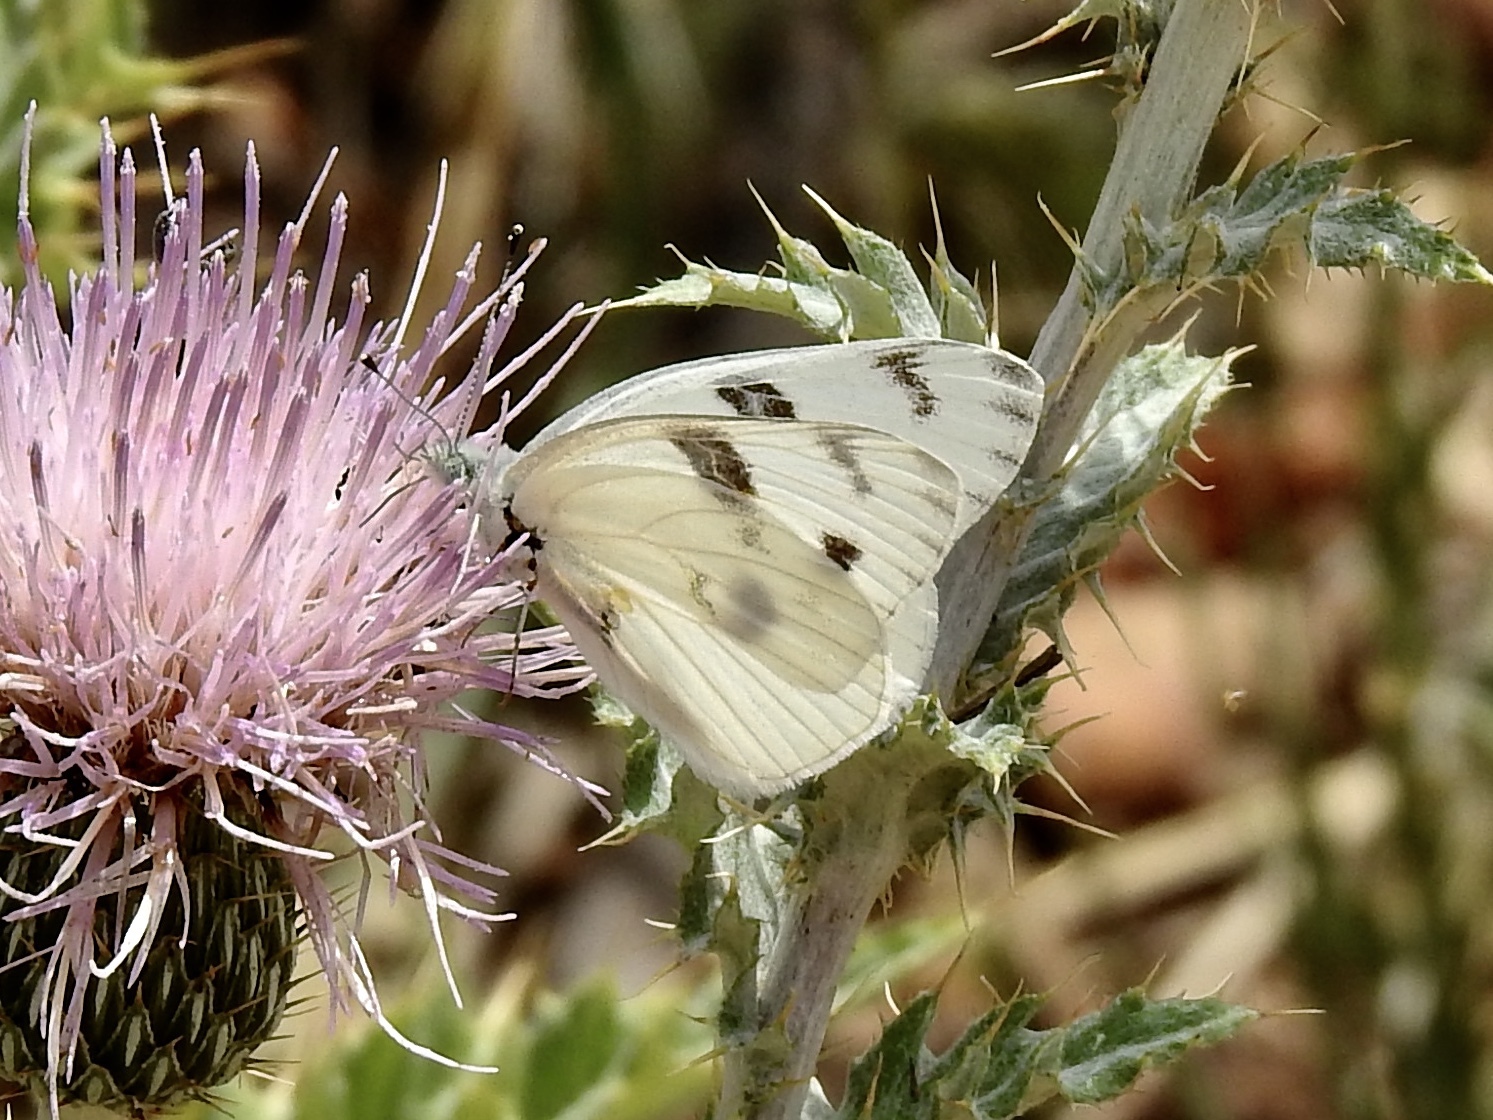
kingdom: Animalia
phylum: Arthropoda
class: Insecta
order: Lepidoptera
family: Pieridae
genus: Pontia
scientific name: Pontia protodice
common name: Checkered white
